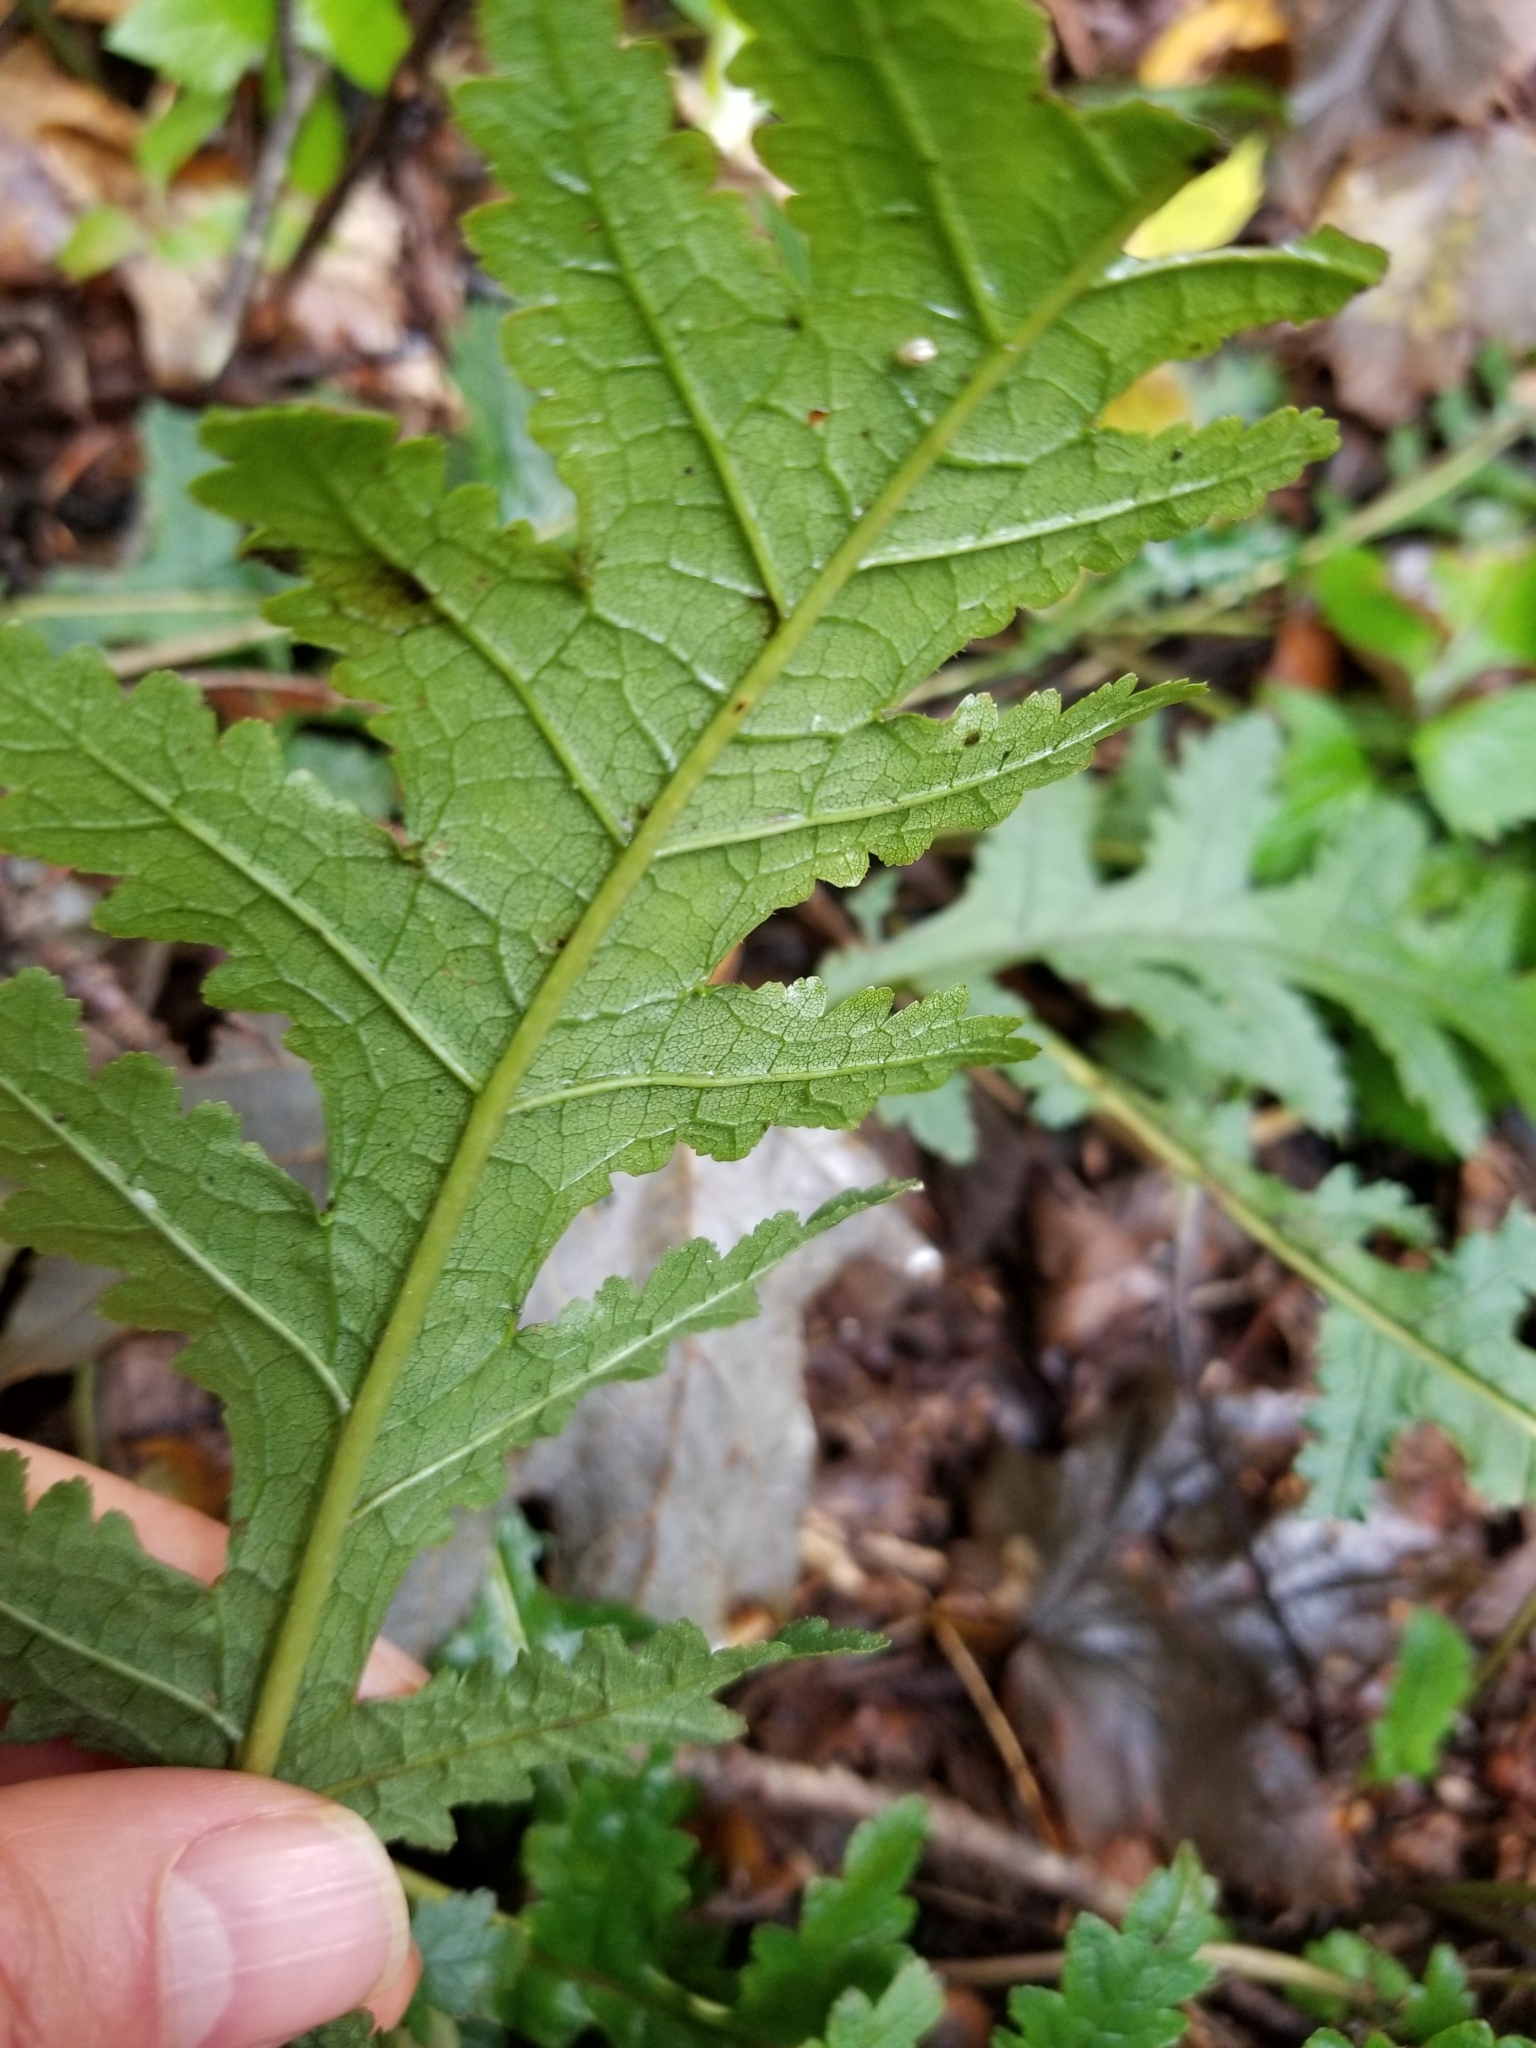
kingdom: Plantae
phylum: Tracheophyta
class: Magnoliopsida
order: Lamiales
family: Orobanchaceae
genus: Pedicularis
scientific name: Pedicularis canadensis
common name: Early lousewort
